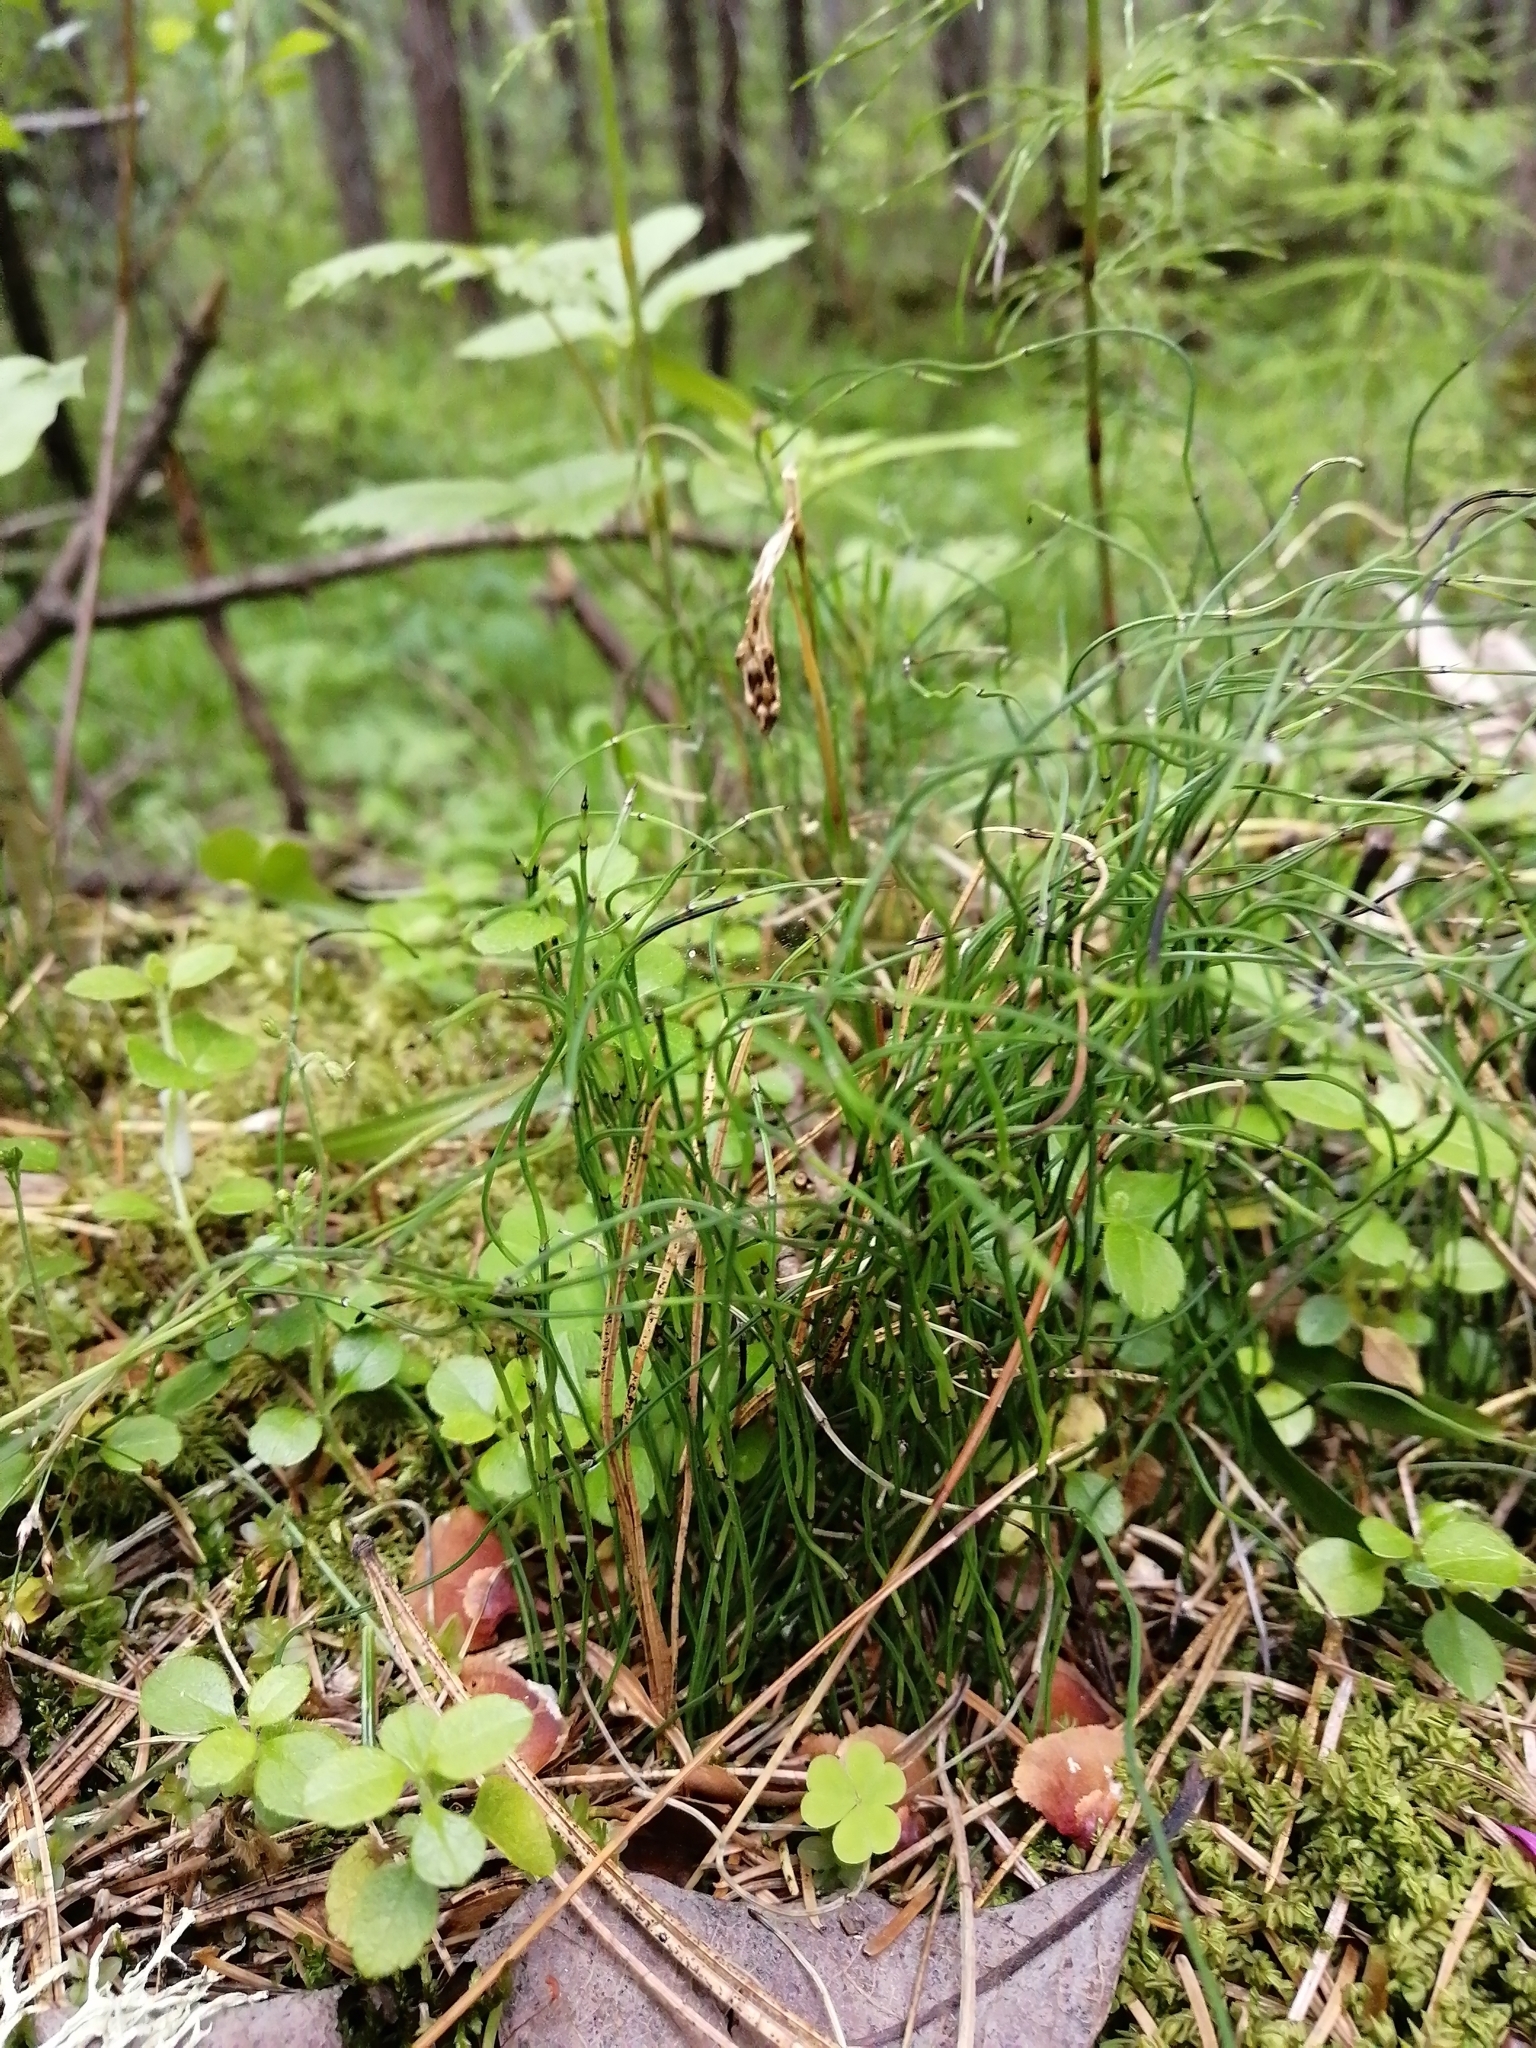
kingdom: Plantae
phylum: Tracheophyta
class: Polypodiopsida
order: Equisetales
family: Equisetaceae
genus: Equisetum
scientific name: Equisetum scirpoides
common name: Delicate horsetail
